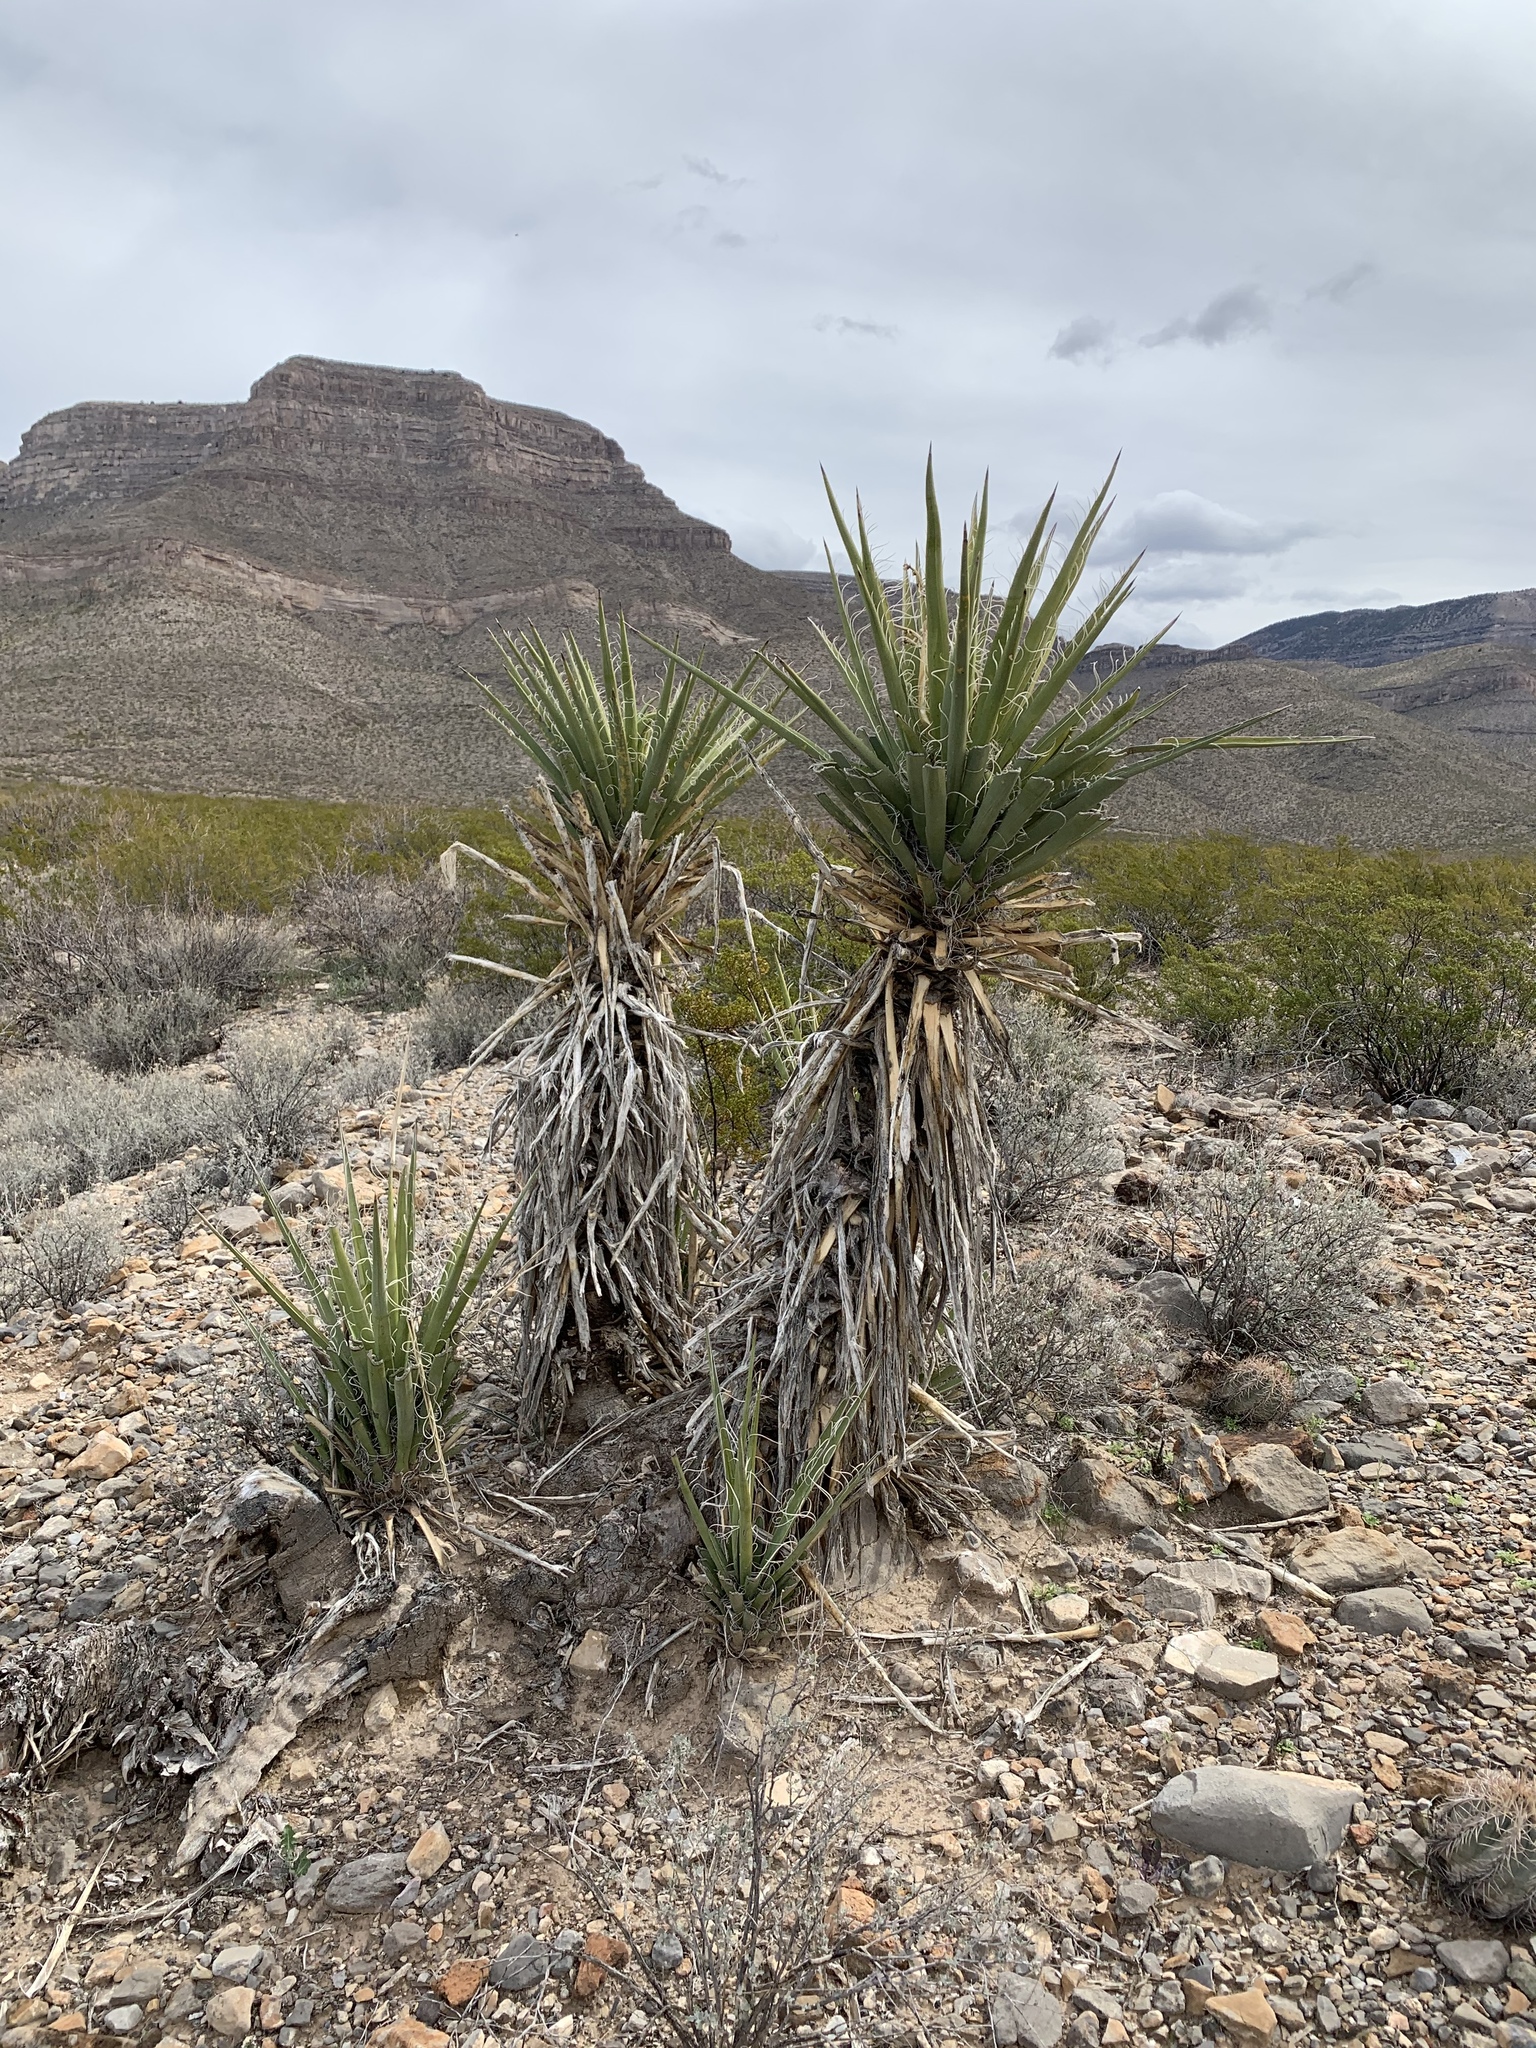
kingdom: Plantae
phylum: Tracheophyta
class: Liliopsida
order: Asparagales
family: Asparagaceae
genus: Yucca
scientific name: Yucca treculiana
